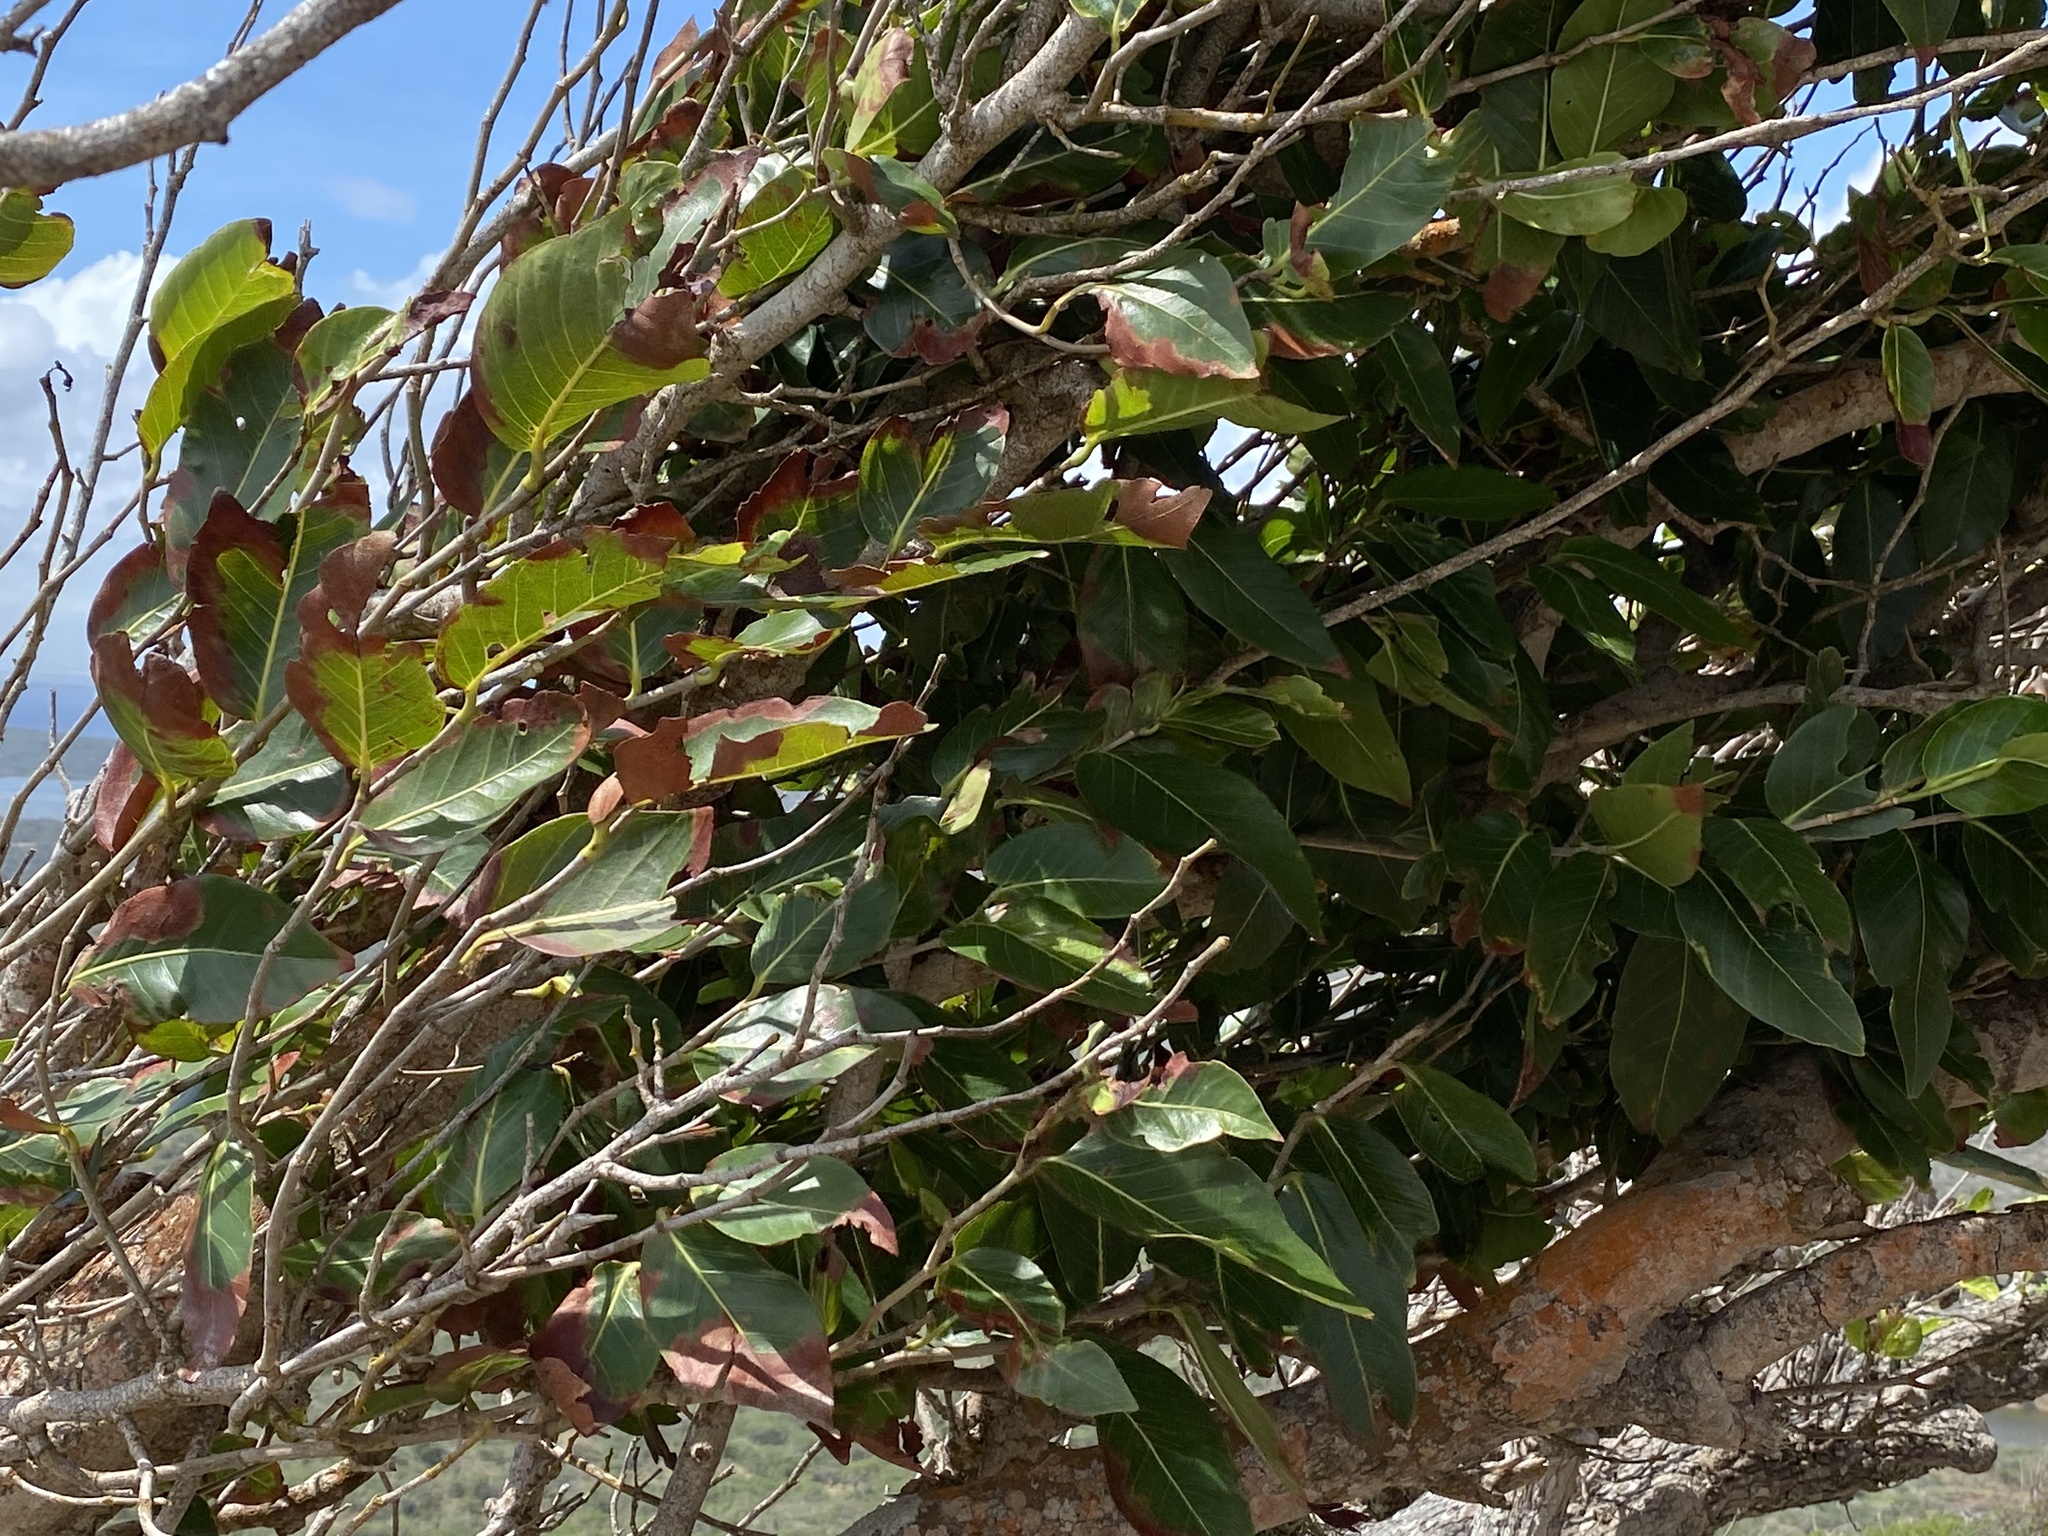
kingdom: Plantae
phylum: Tracheophyta
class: Magnoliopsida
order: Caryophyllales
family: Polygonaceae
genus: Coccoloba
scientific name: Coccoloba swartzii
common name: Red wood
